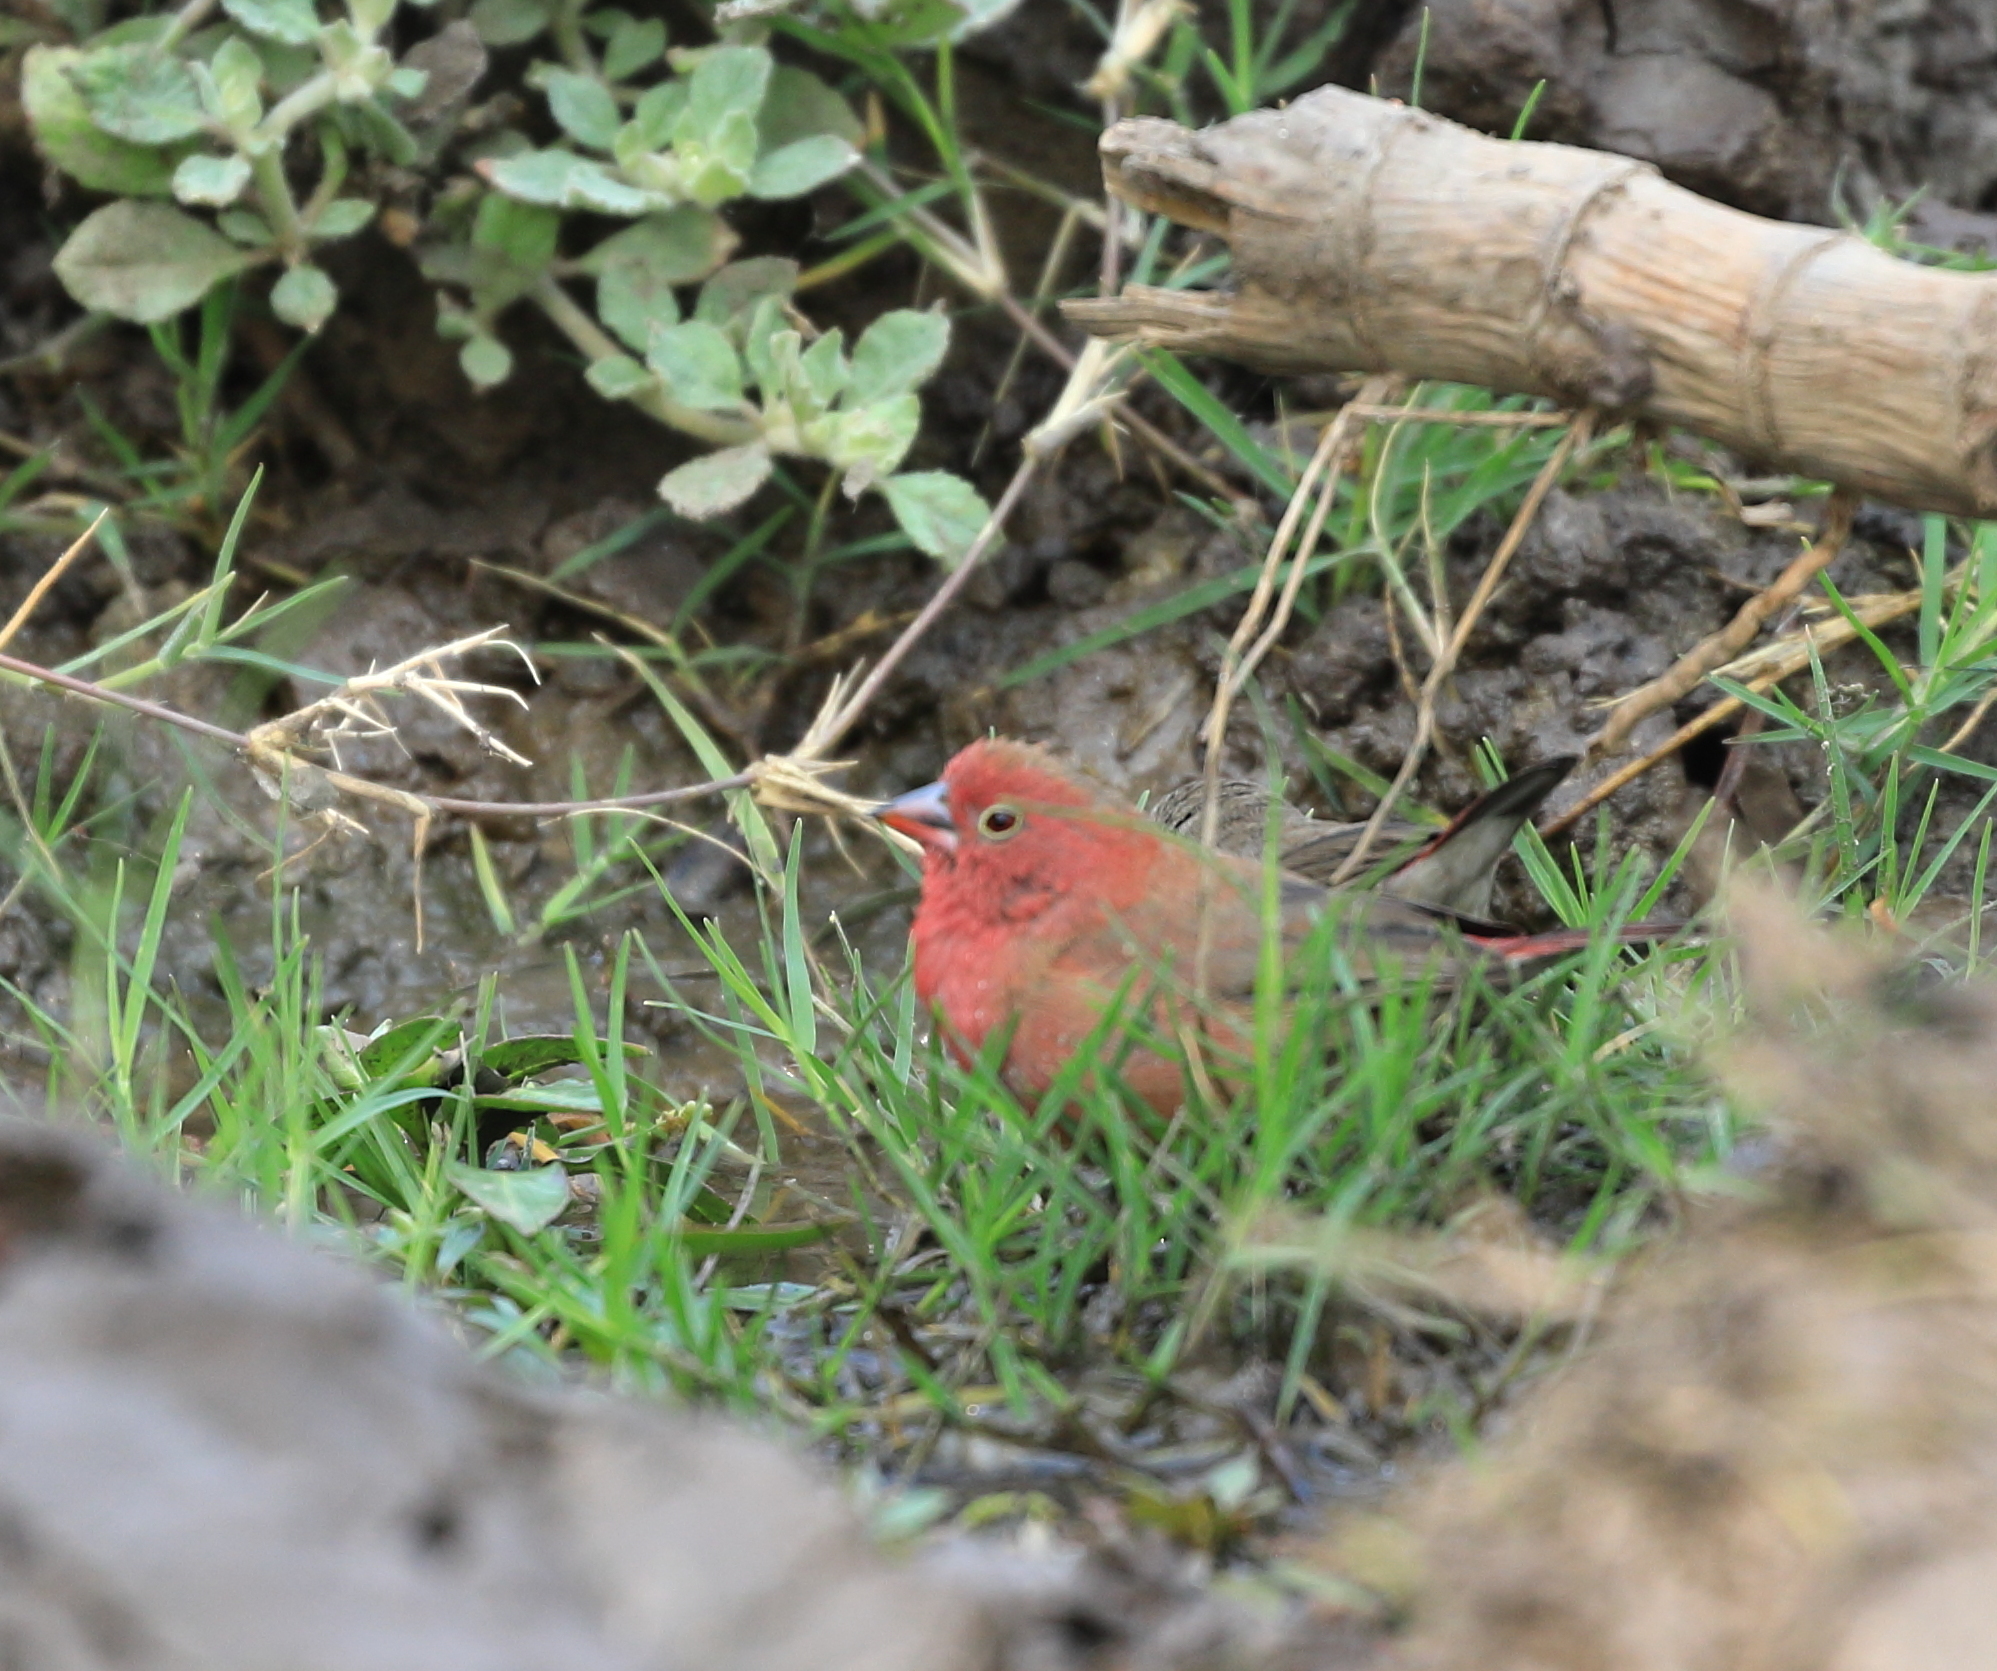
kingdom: Animalia
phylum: Chordata
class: Aves
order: Passeriformes
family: Estrildidae
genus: Lagonosticta
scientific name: Lagonosticta senegala
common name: Red-billed firefinch
